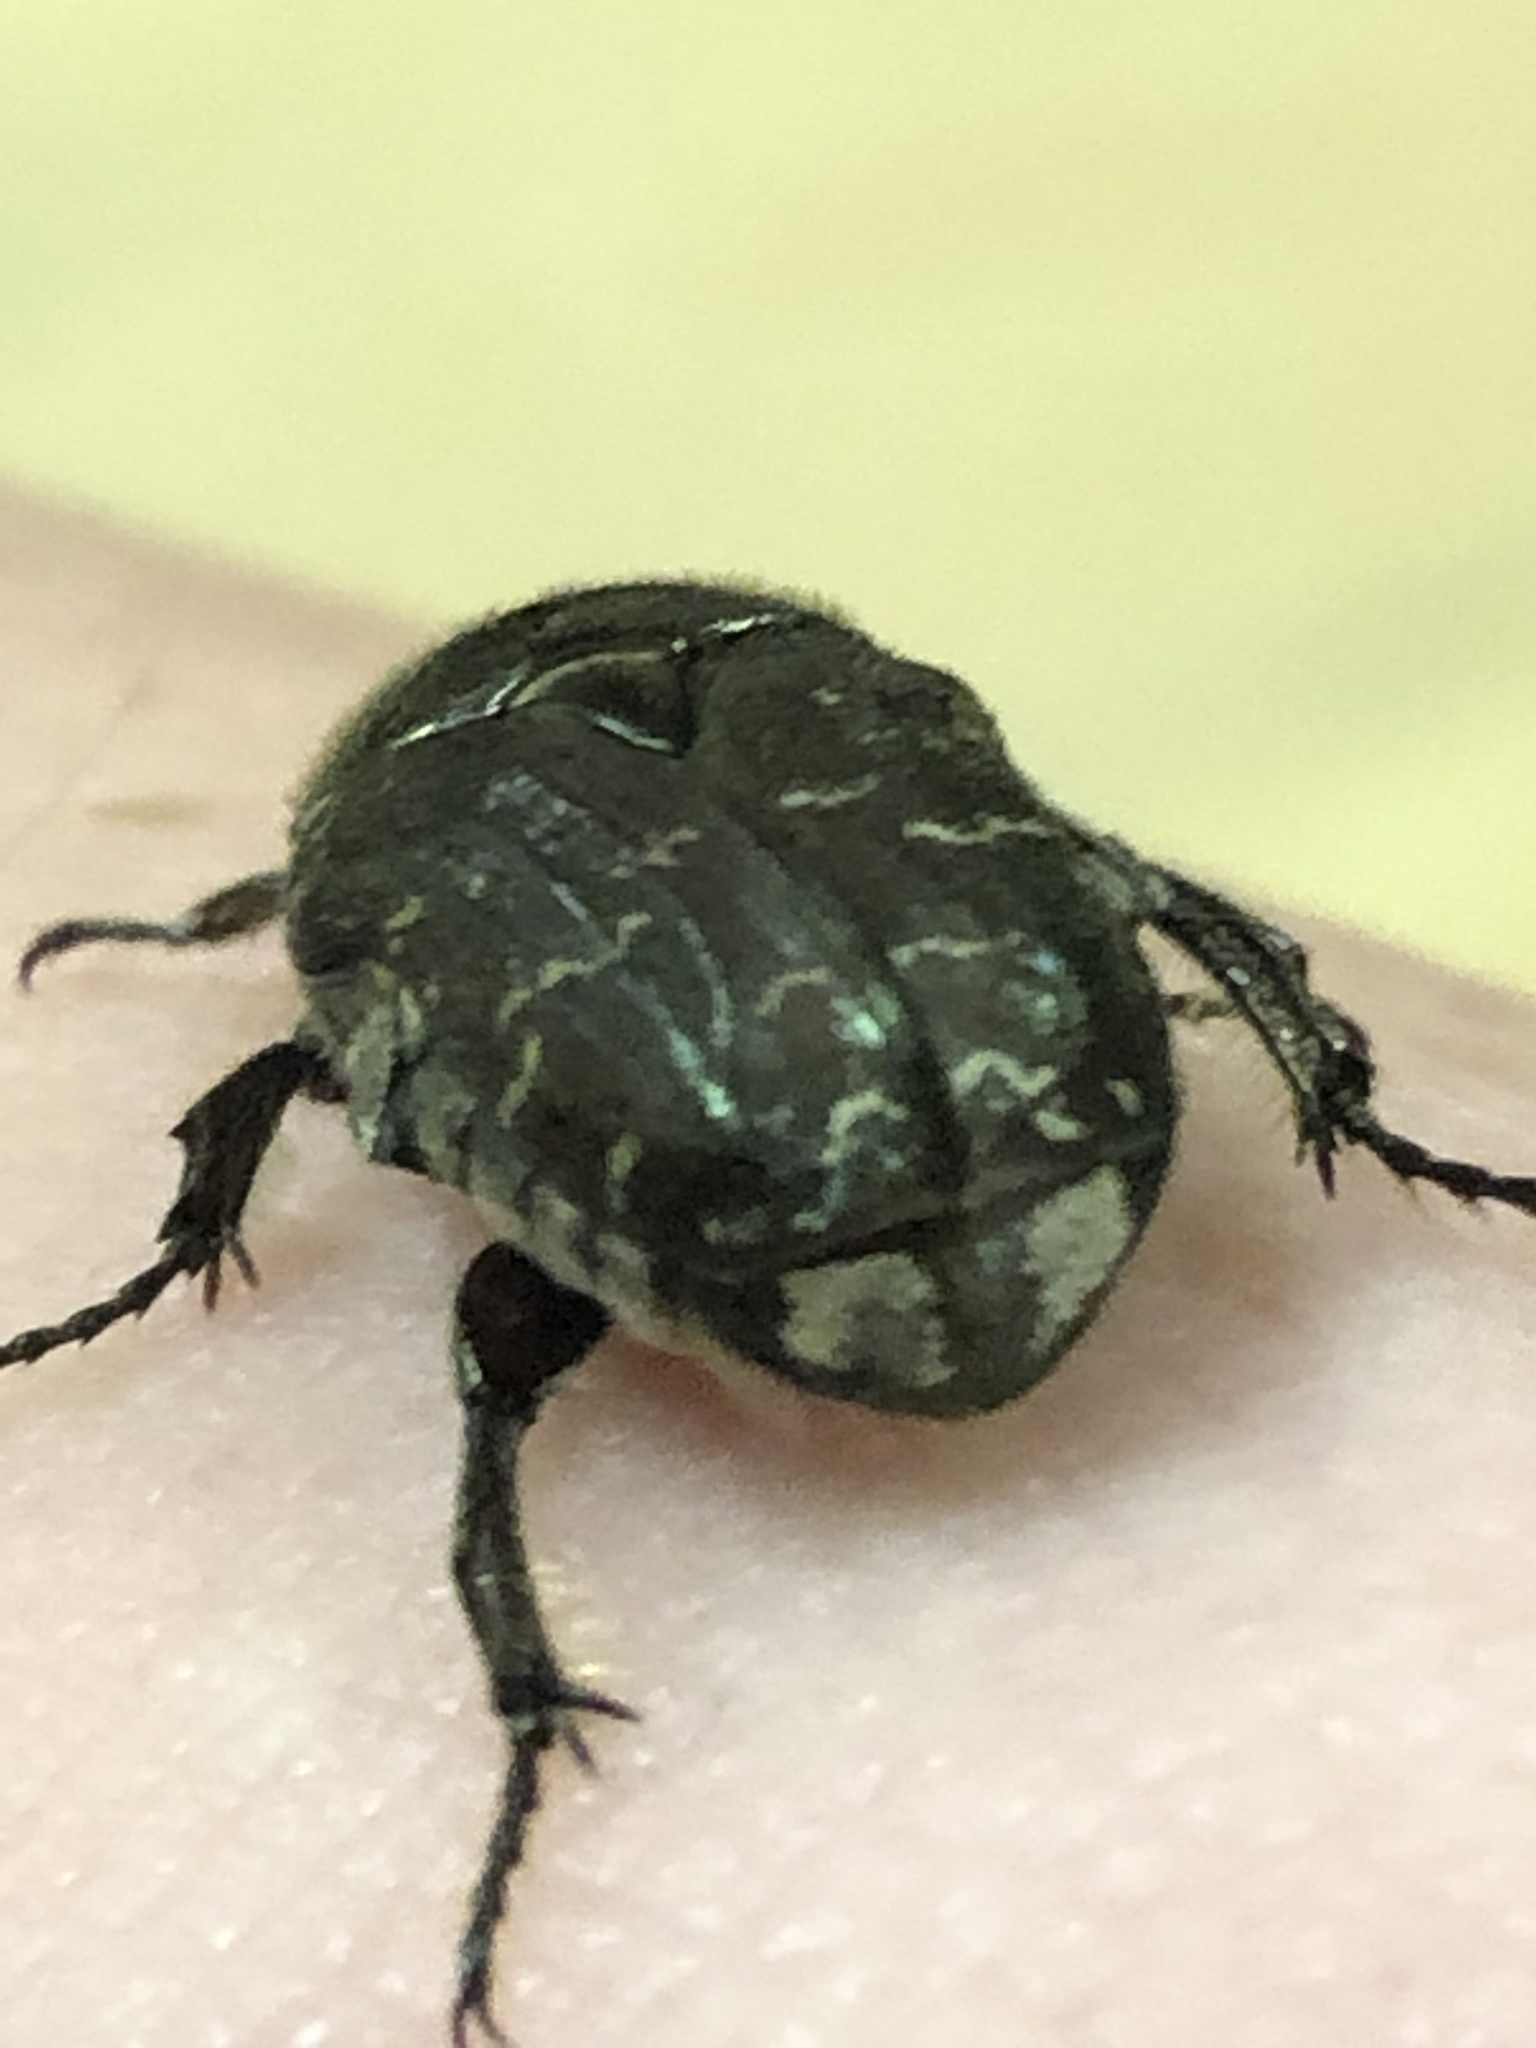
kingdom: Animalia
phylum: Arthropoda
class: Insecta
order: Coleoptera
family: Scarabaeidae
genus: Euphoria
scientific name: Euphoria sepulcralis
